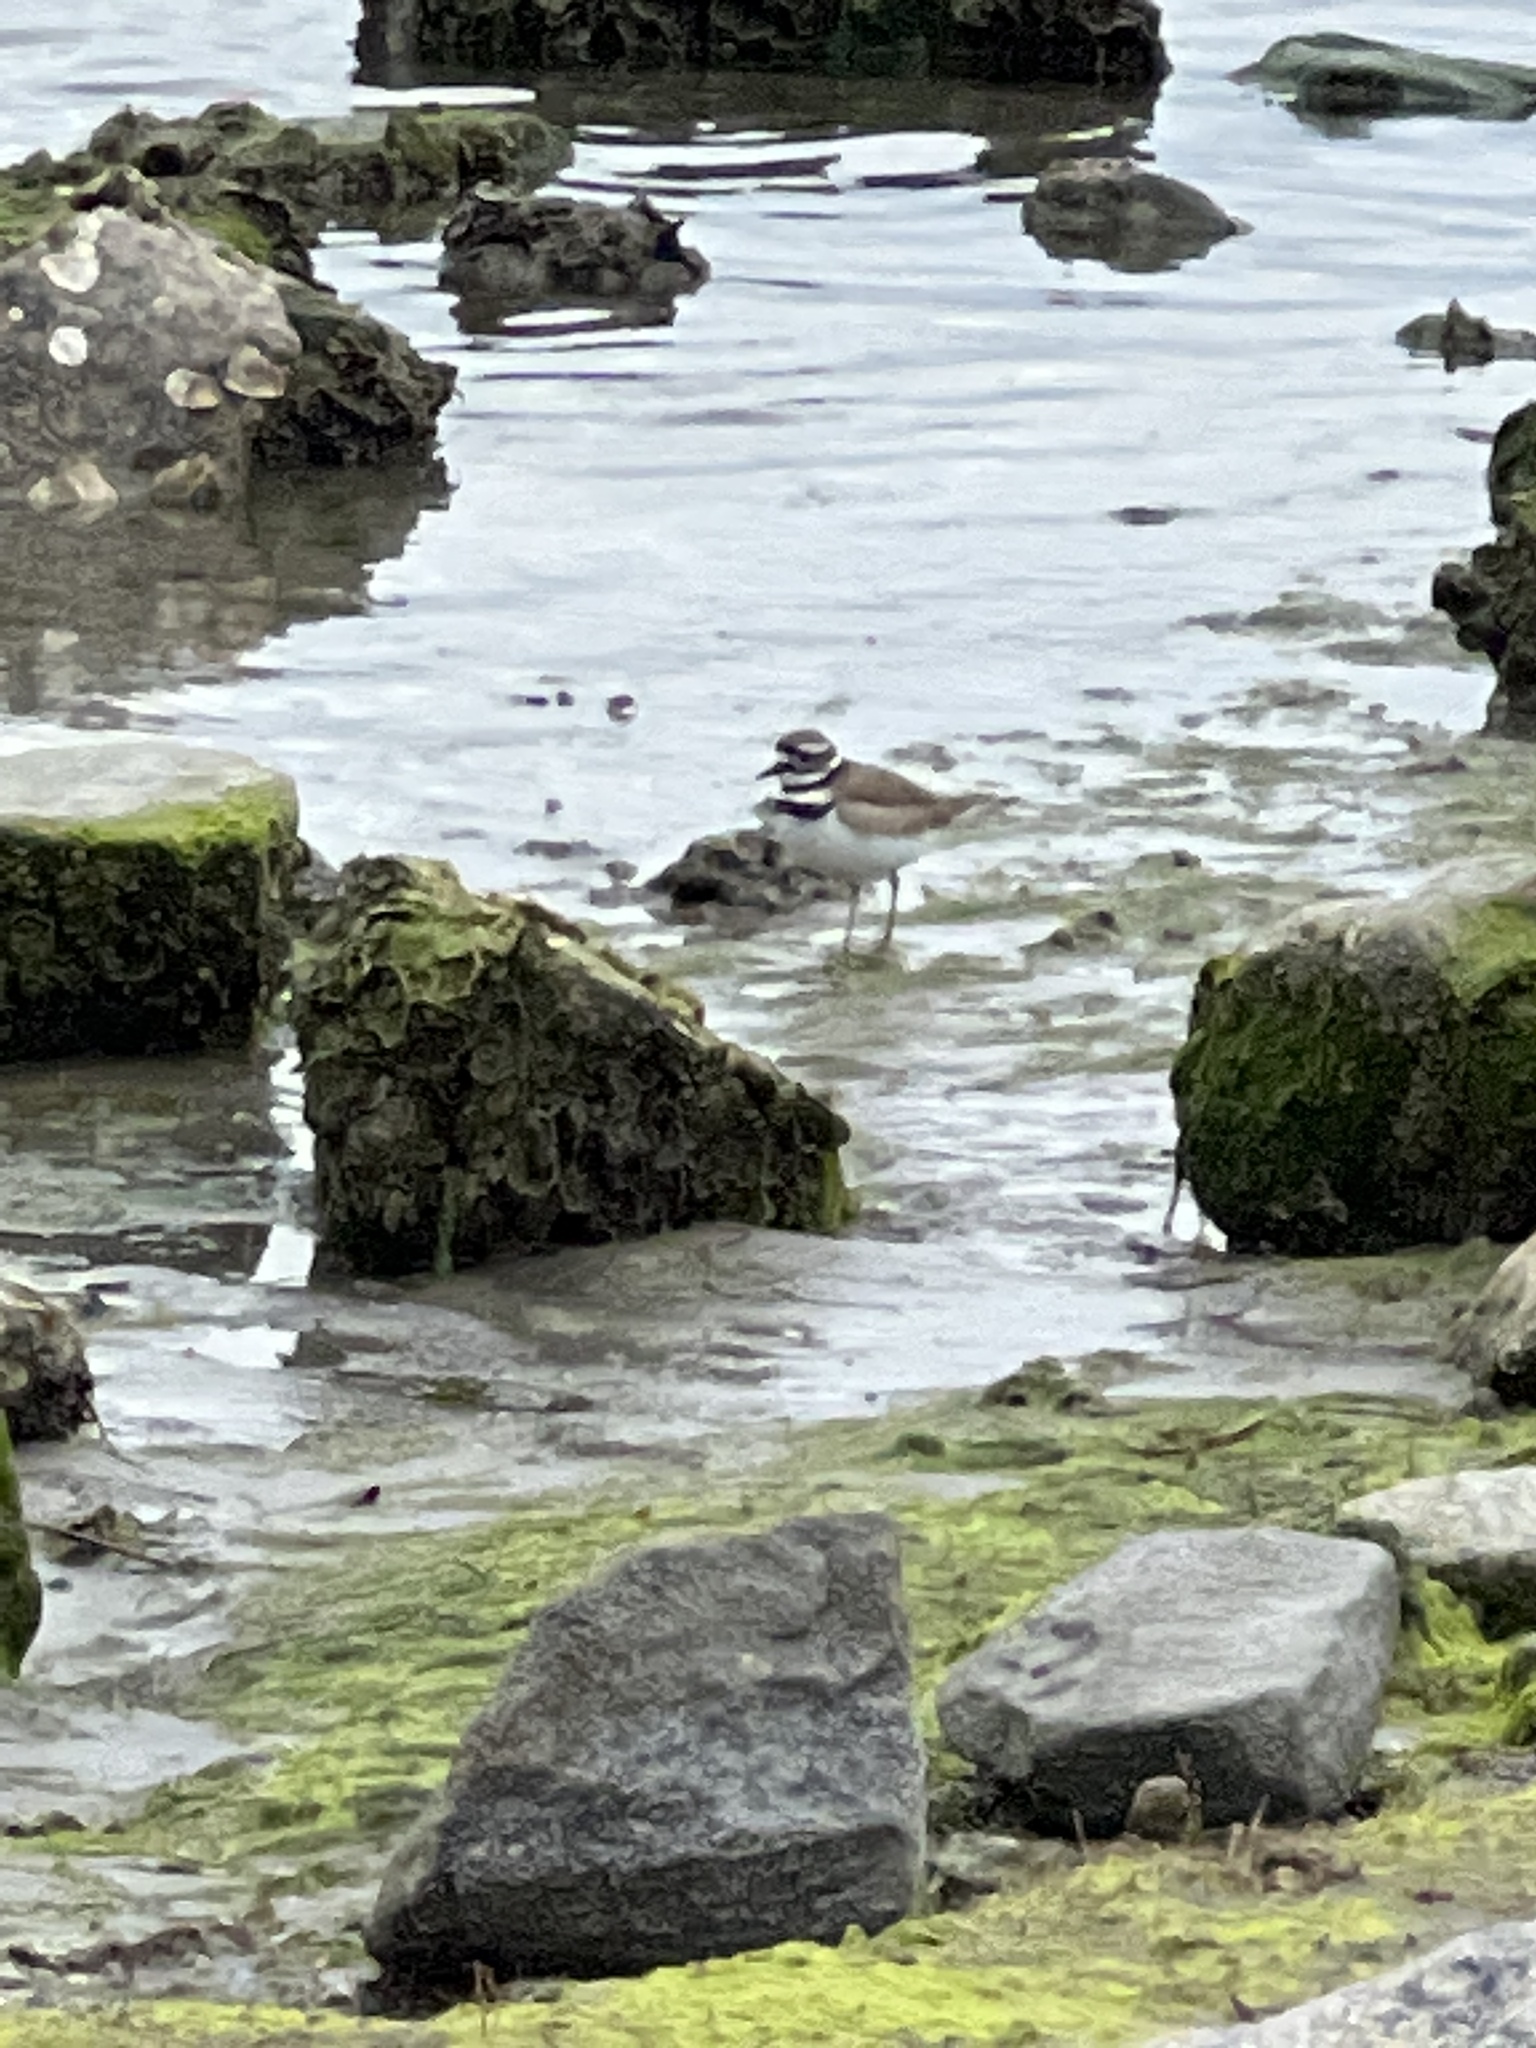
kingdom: Animalia
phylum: Chordata
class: Aves
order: Charadriiformes
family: Charadriidae
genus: Charadrius
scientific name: Charadrius vociferus
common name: Killdeer
